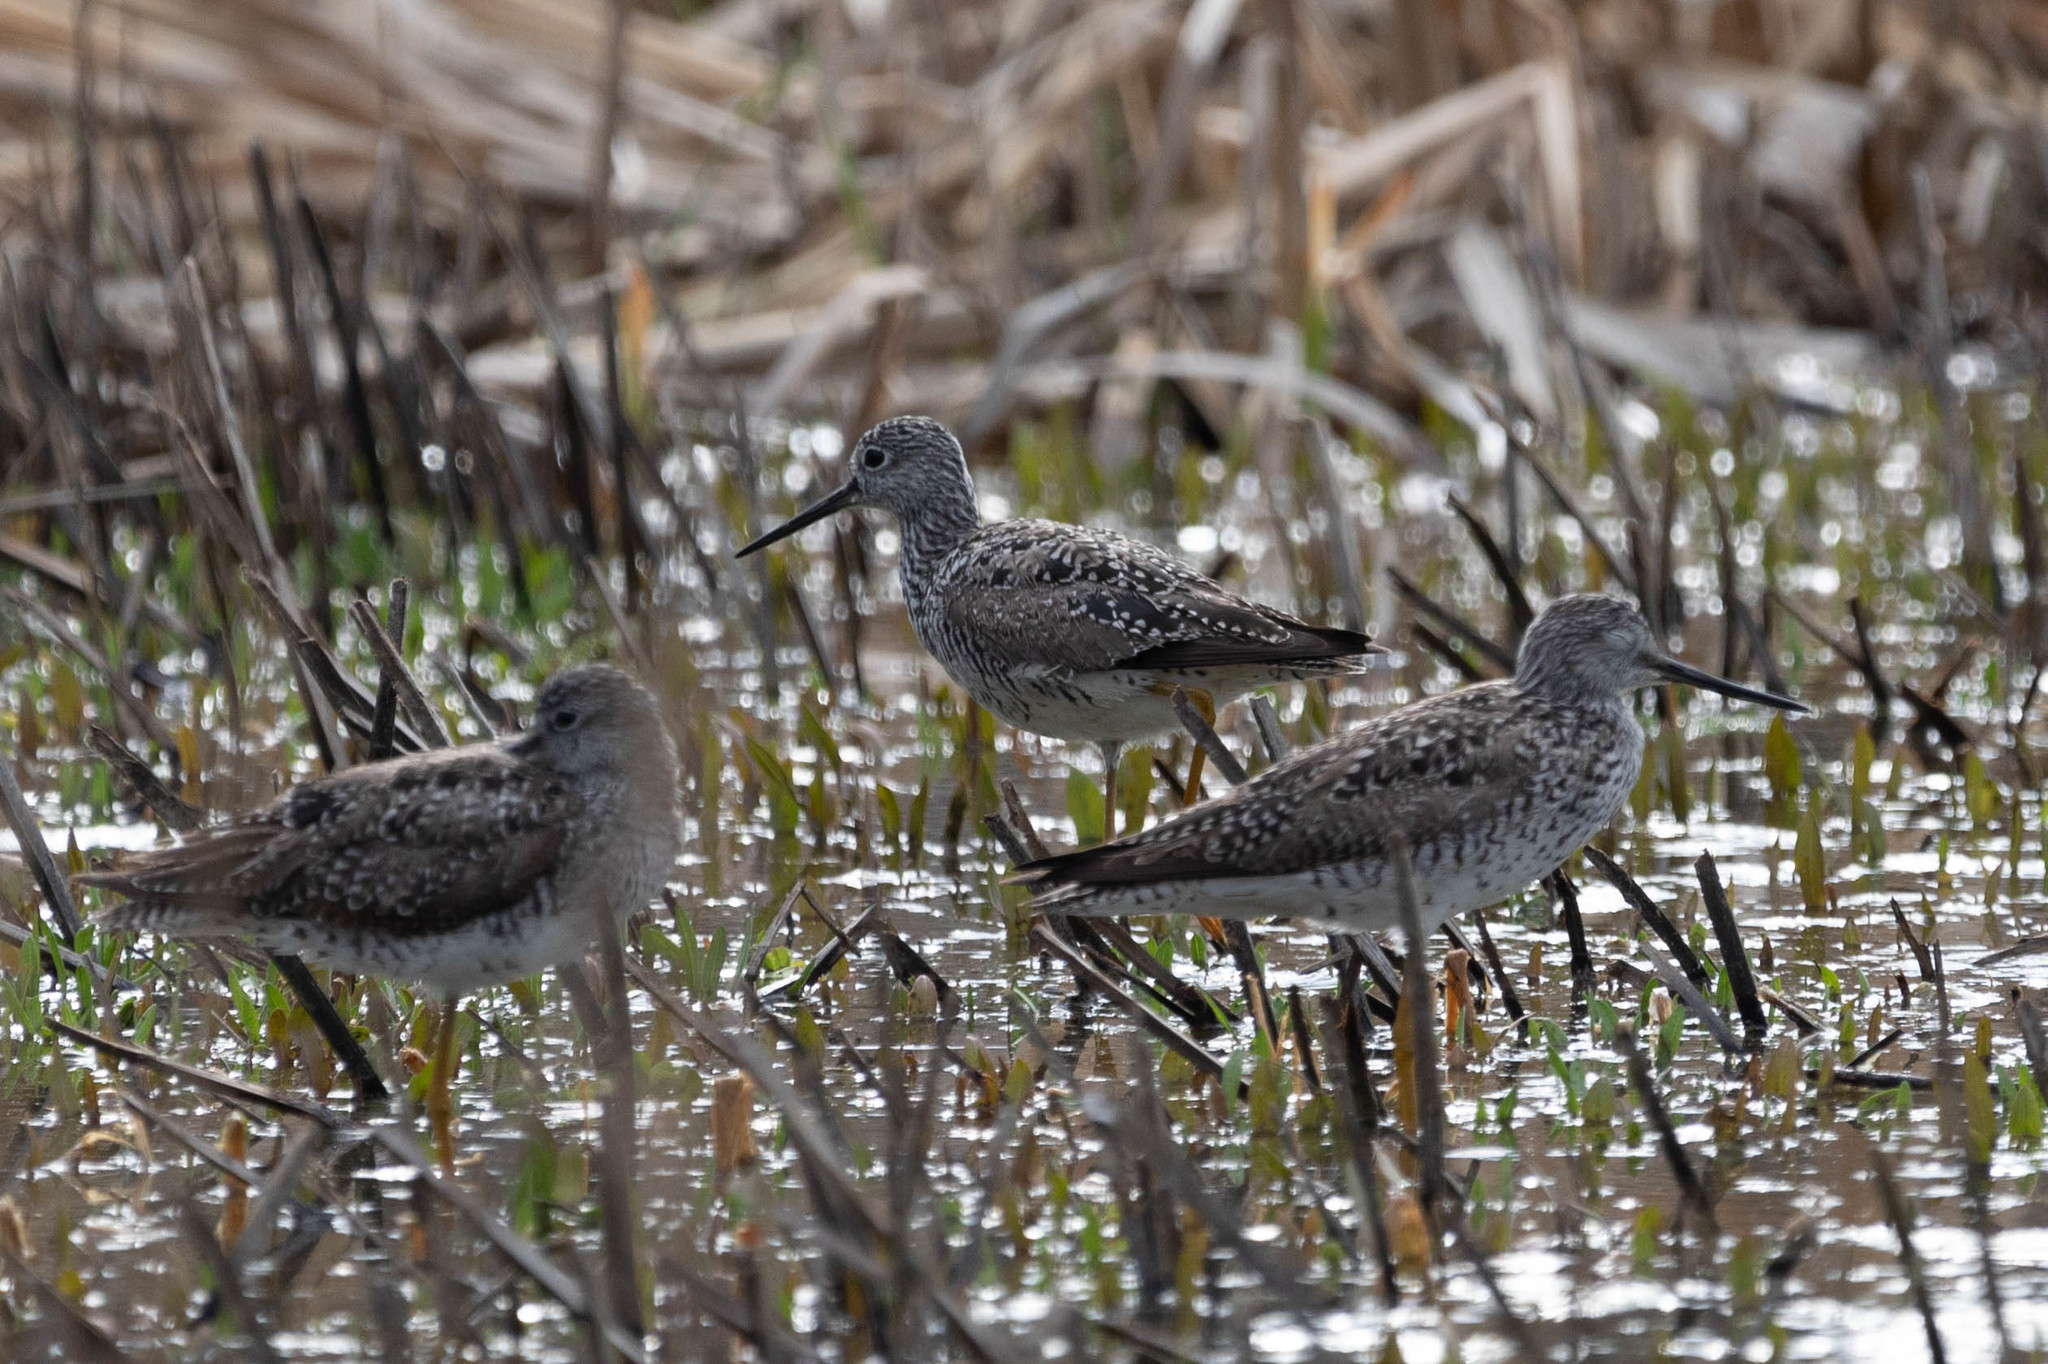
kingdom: Animalia
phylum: Chordata
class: Aves
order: Charadriiformes
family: Scolopacidae
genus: Tringa
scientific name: Tringa melanoleuca
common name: Greater yellowlegs
